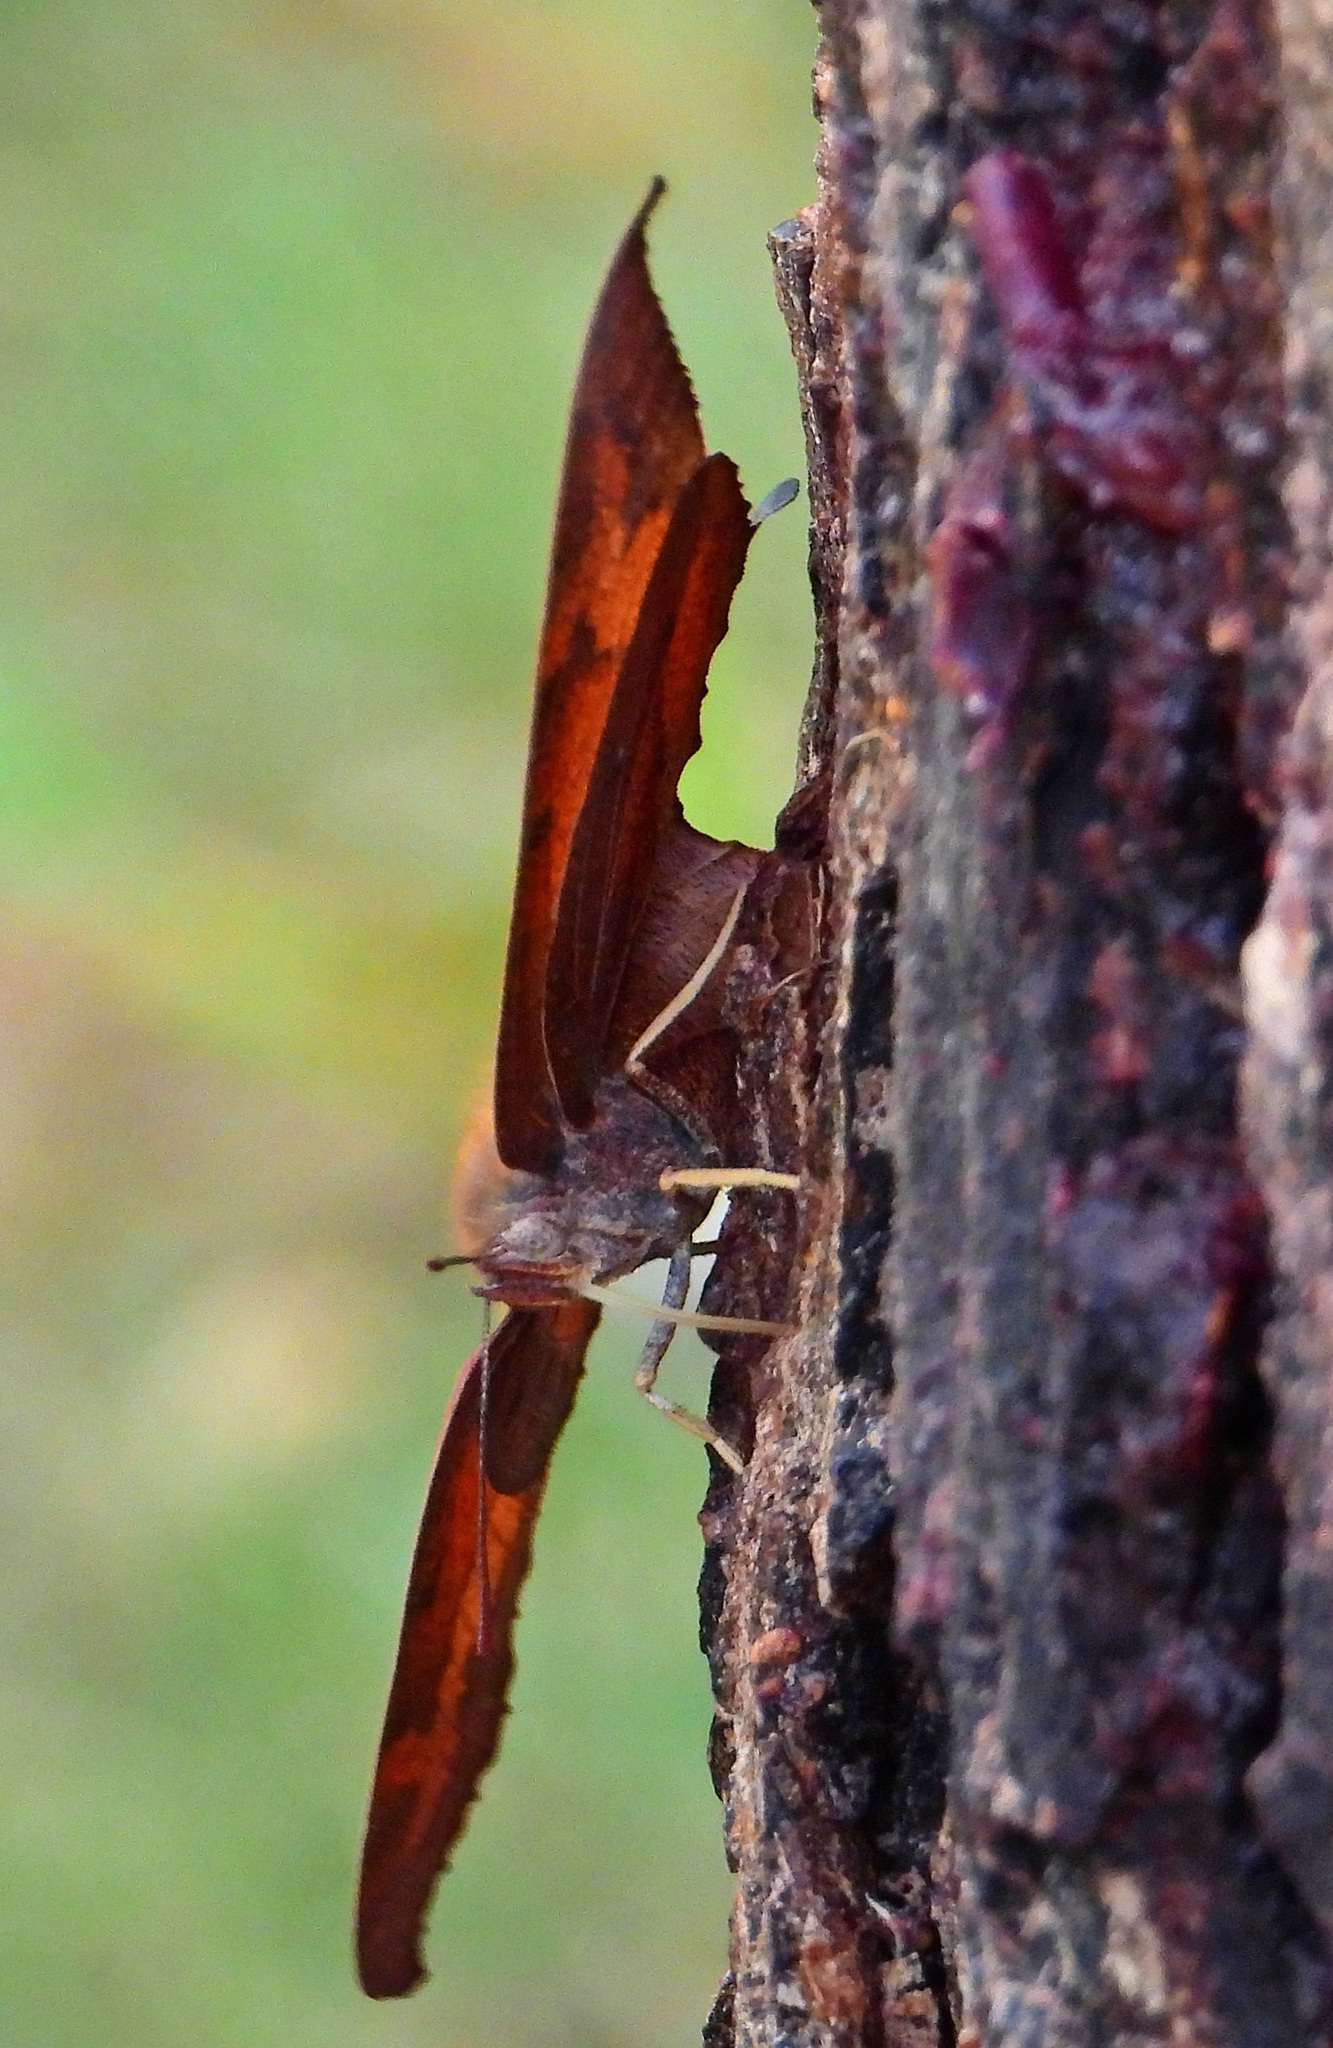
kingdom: Animalia
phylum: Arthropoda
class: Insecta
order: Lepidoptera
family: Nymphalidae
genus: Anaea
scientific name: Anaea andria
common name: Goatweed leafwing
